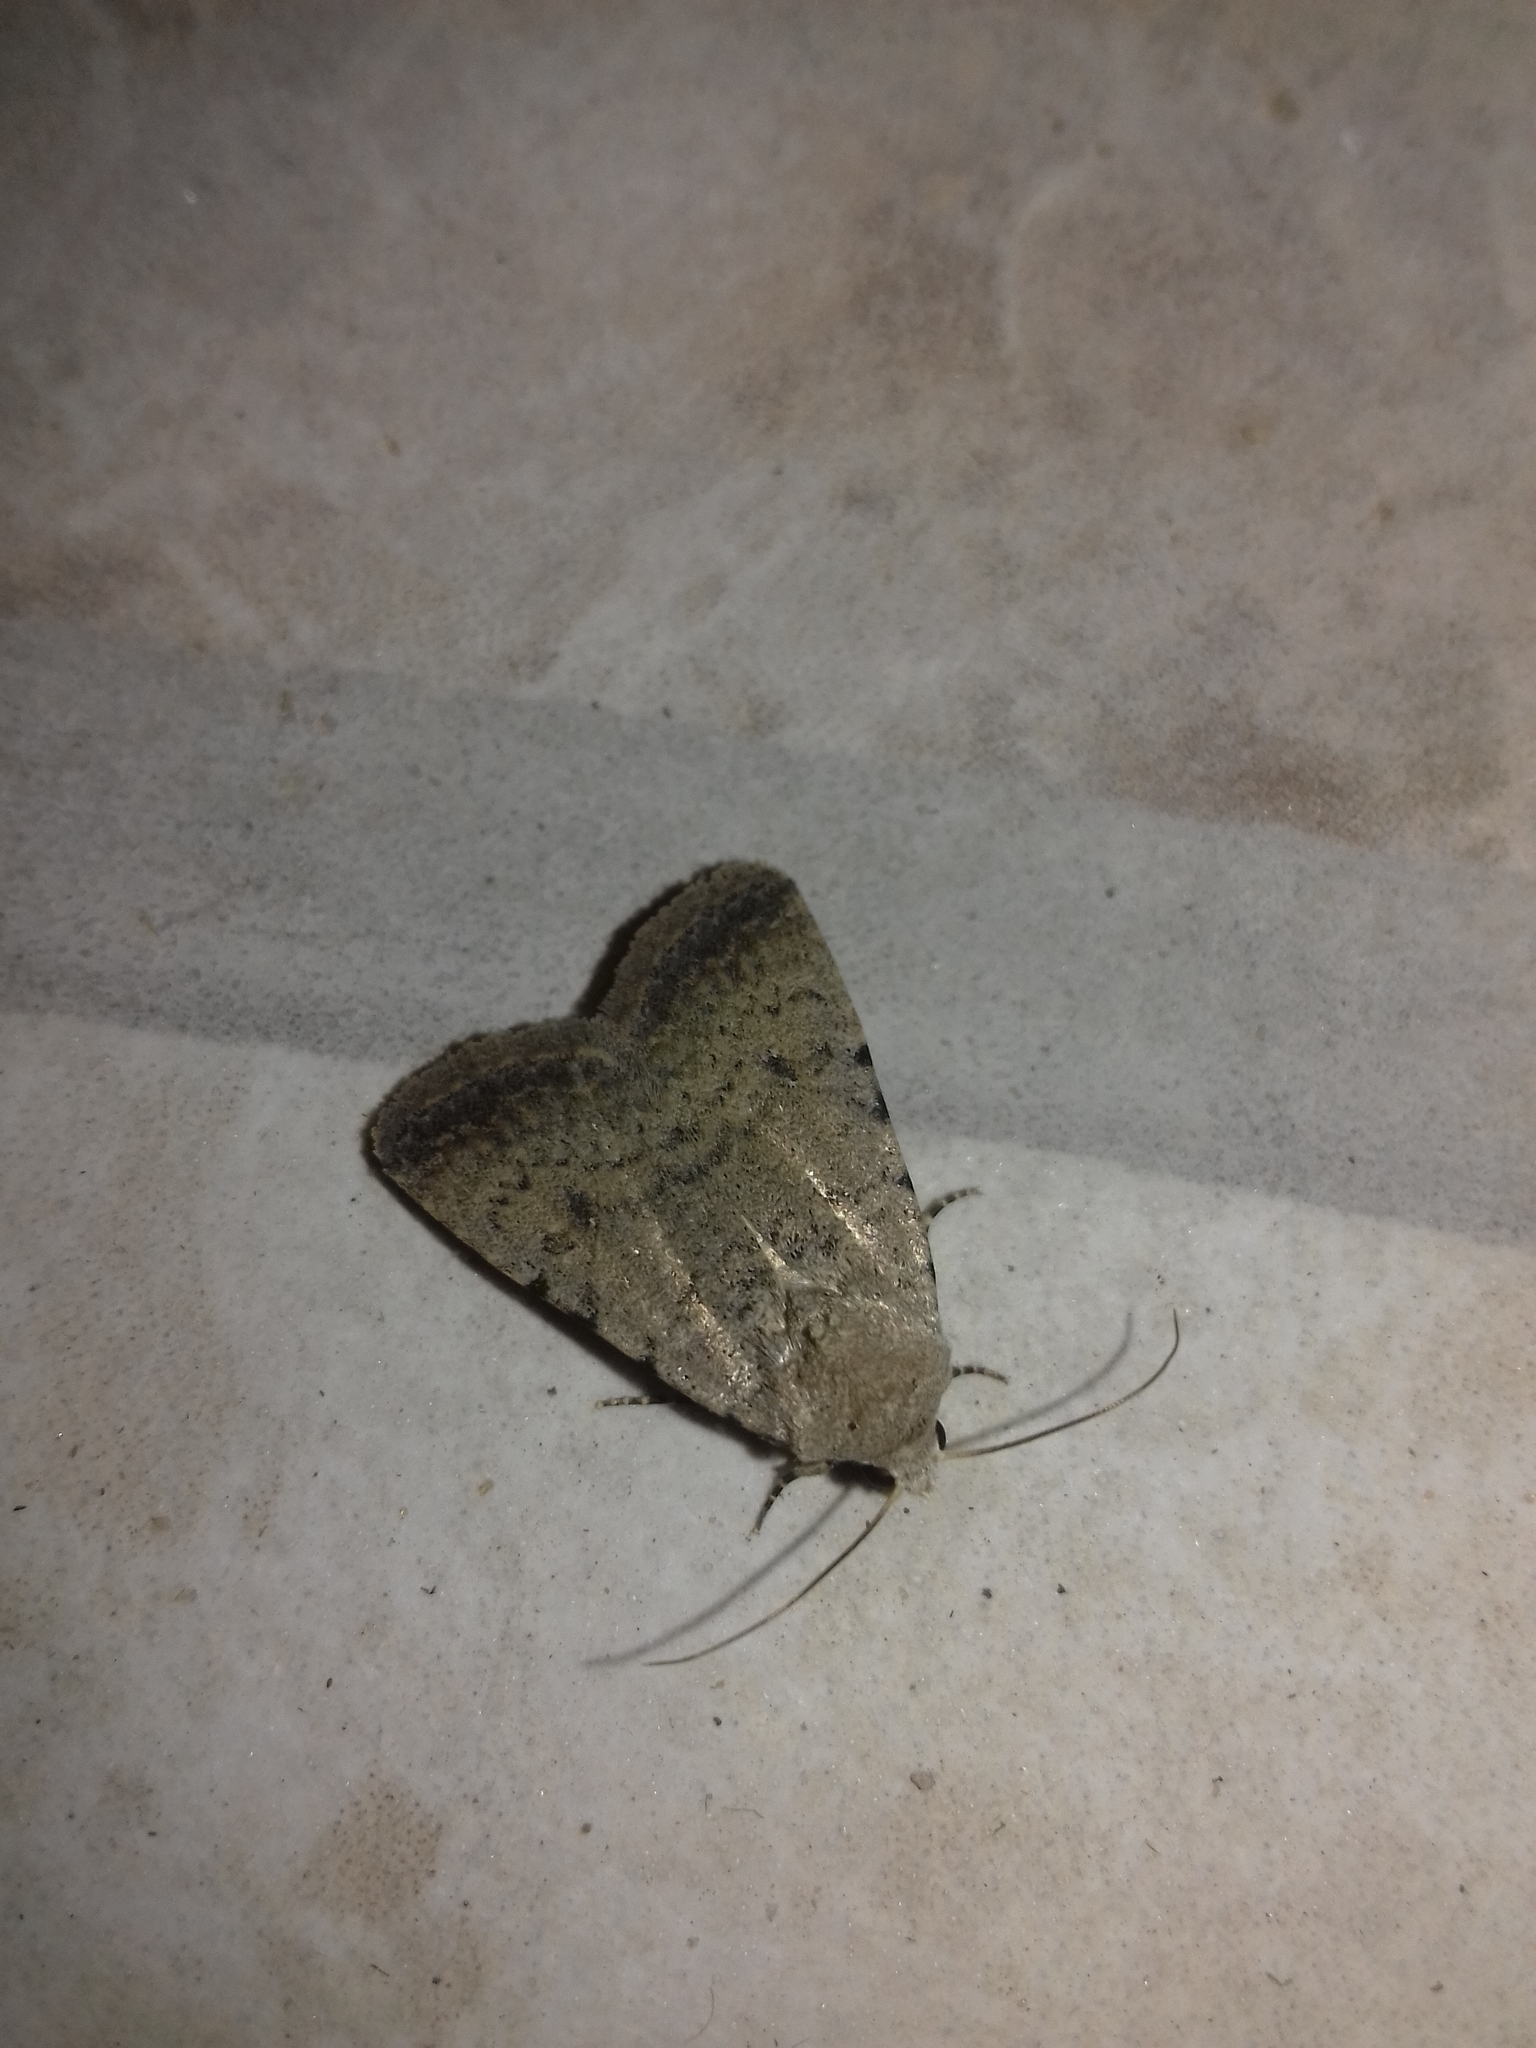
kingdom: Animalia
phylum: Arthropoda
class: Insecta
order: Lepidoptera
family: Noctuidae
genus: Caradrina
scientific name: Caradrina clavipalpis
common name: Pale mottled willow
